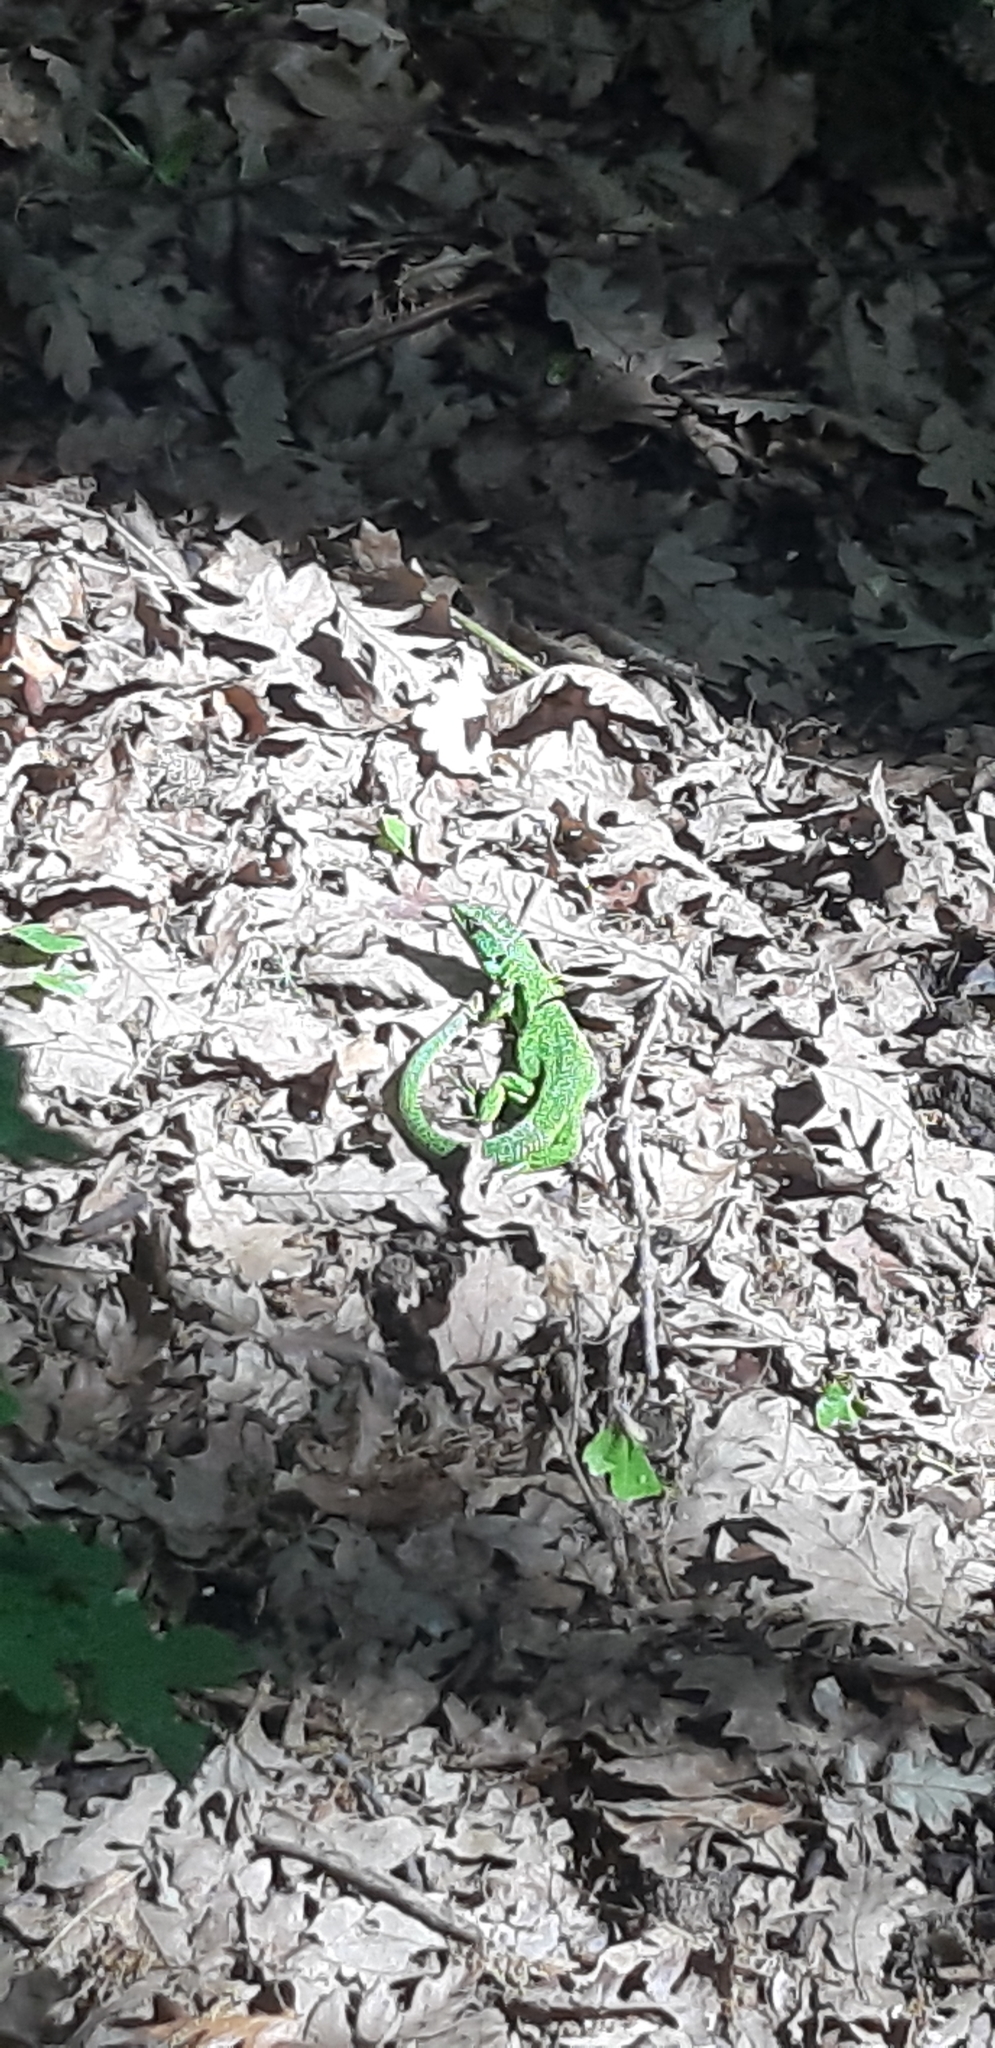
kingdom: Animalia
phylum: Chordata
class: Squamata
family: Lacertidae
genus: Lacerta
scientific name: Lacerta bilineata
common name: Western green lizard
